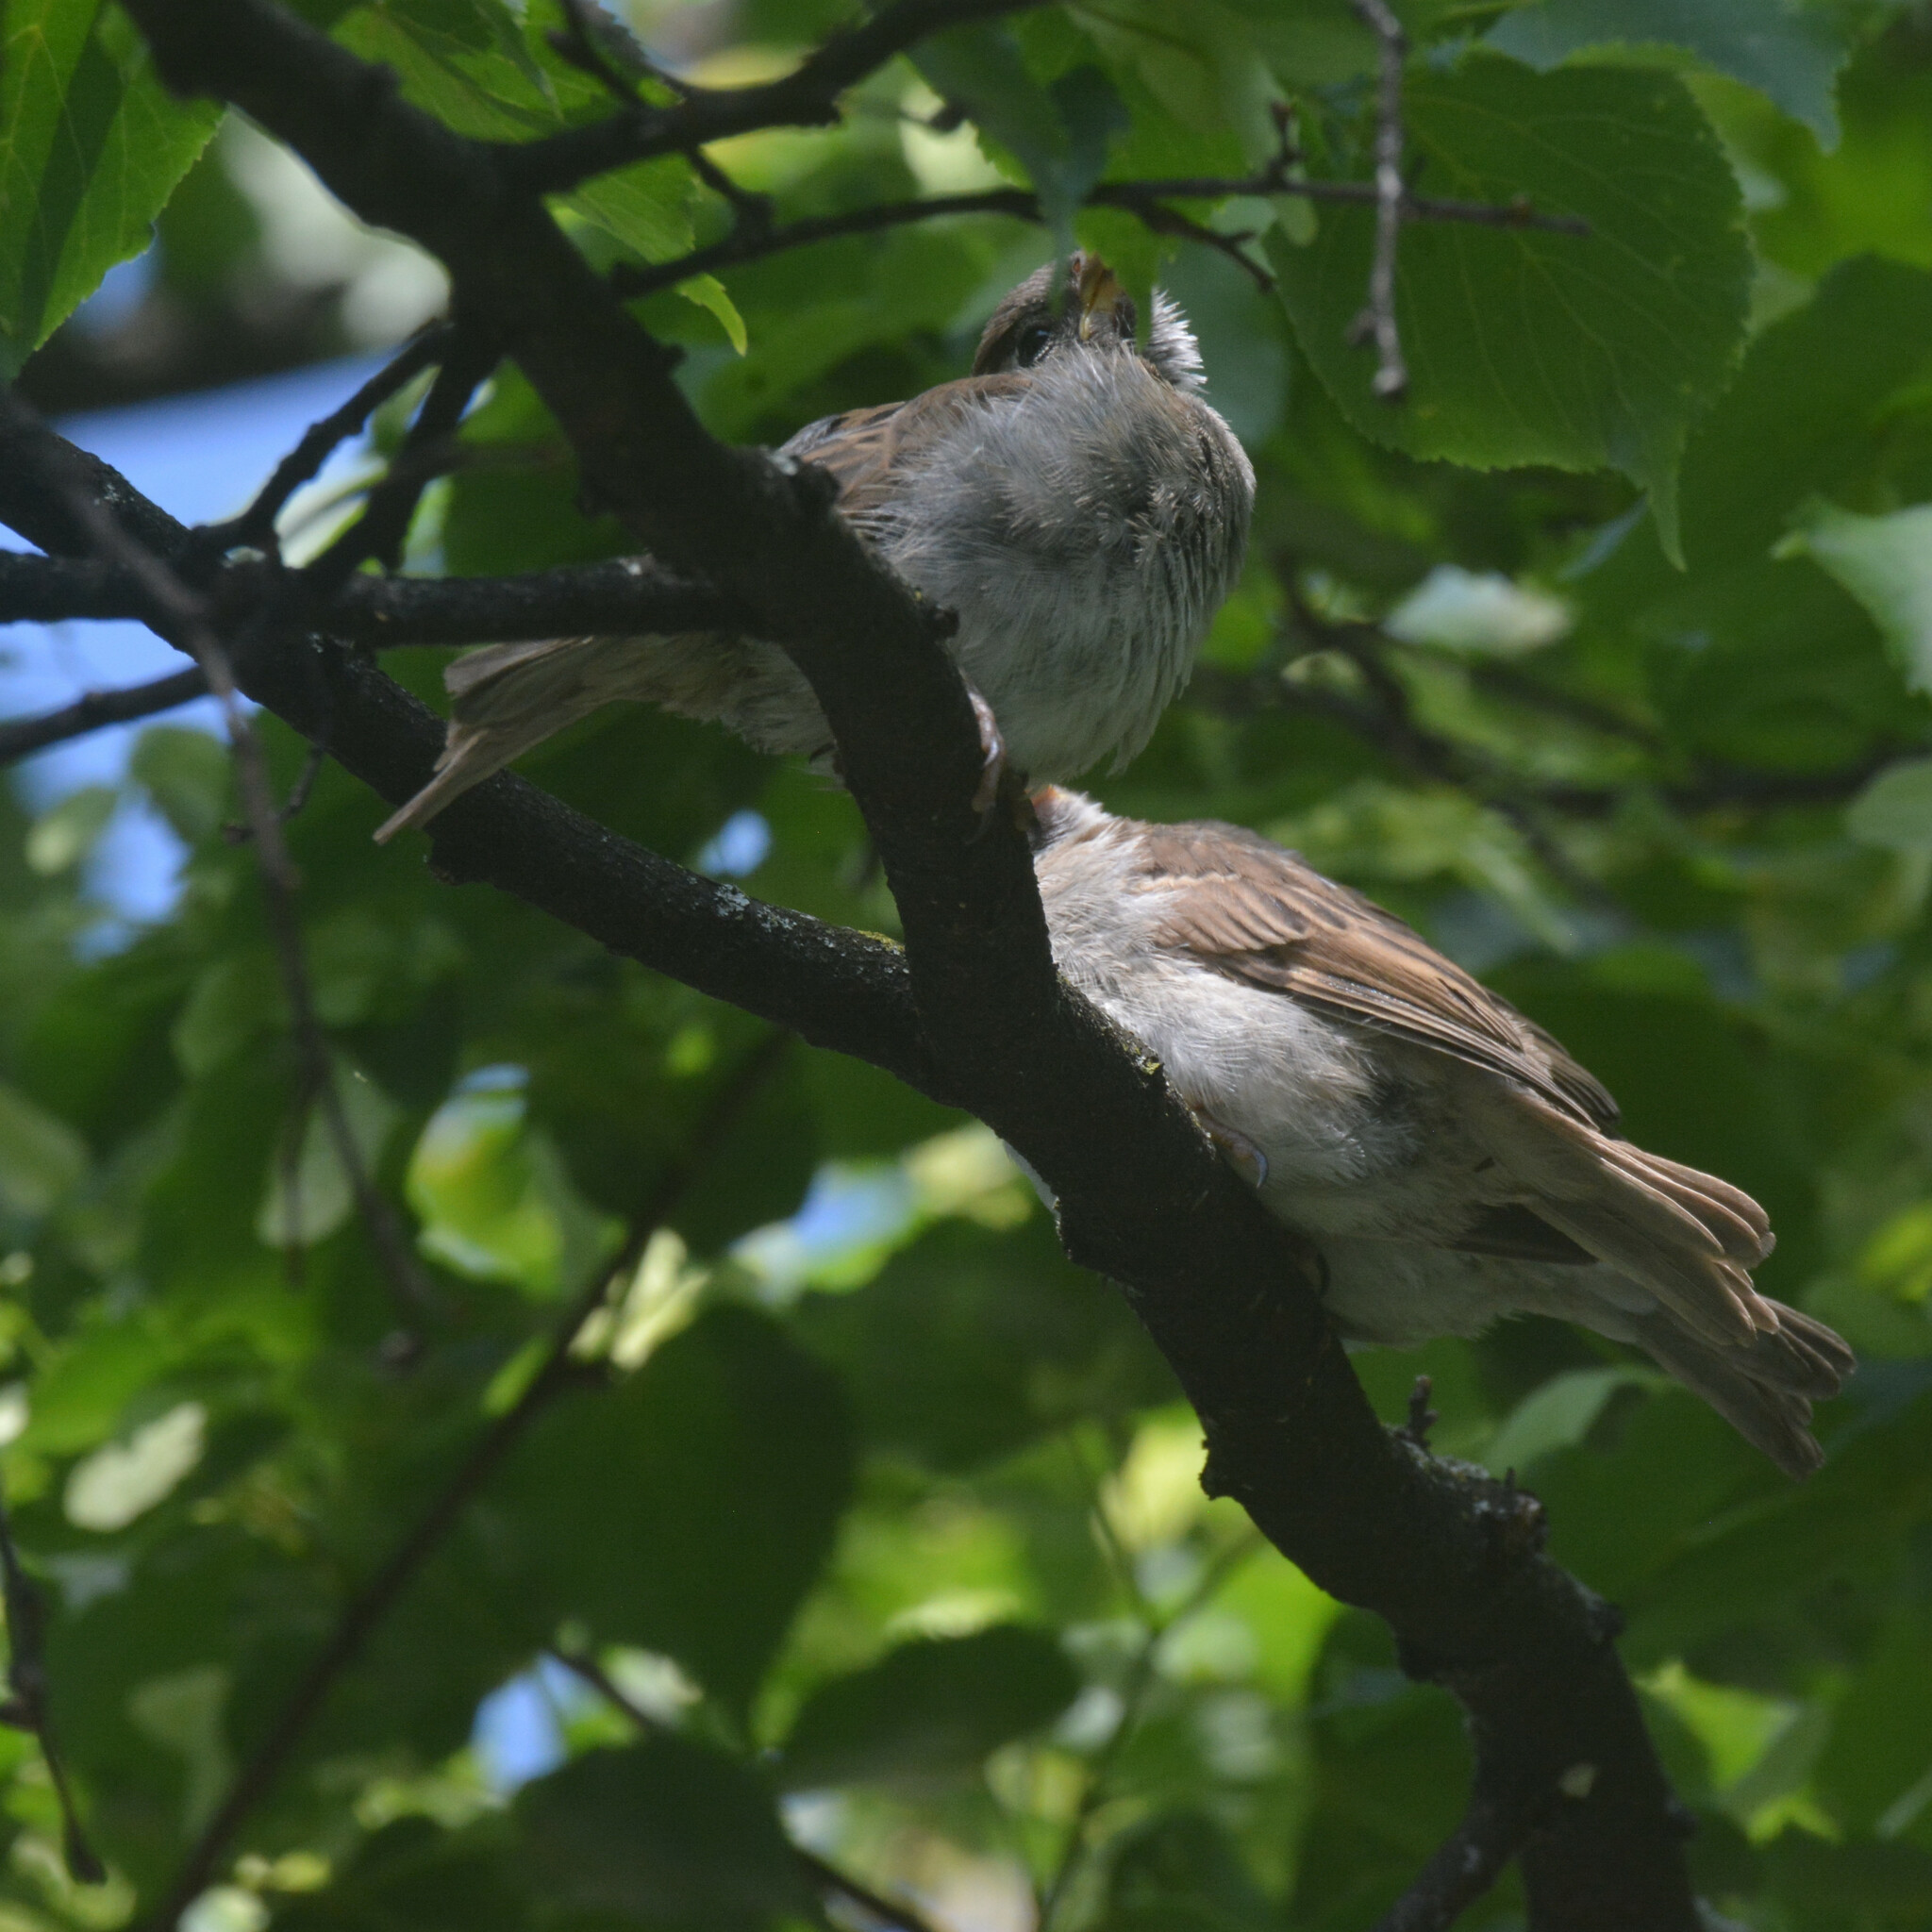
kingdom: Animalia
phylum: Chordata
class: Aves
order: Passeriformes
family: Passeridae
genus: Passer
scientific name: Passer domesticus
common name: House sparrow
